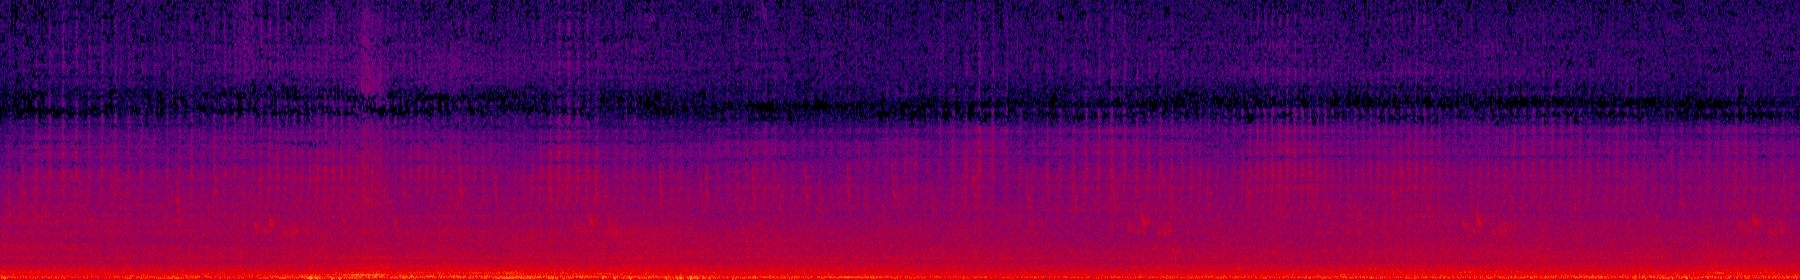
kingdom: Animalia
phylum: Arthropoda
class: Insecta
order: Hemiptera
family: Cicadidae
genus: Cryptotympana
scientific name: Cryptotympana takasagona
